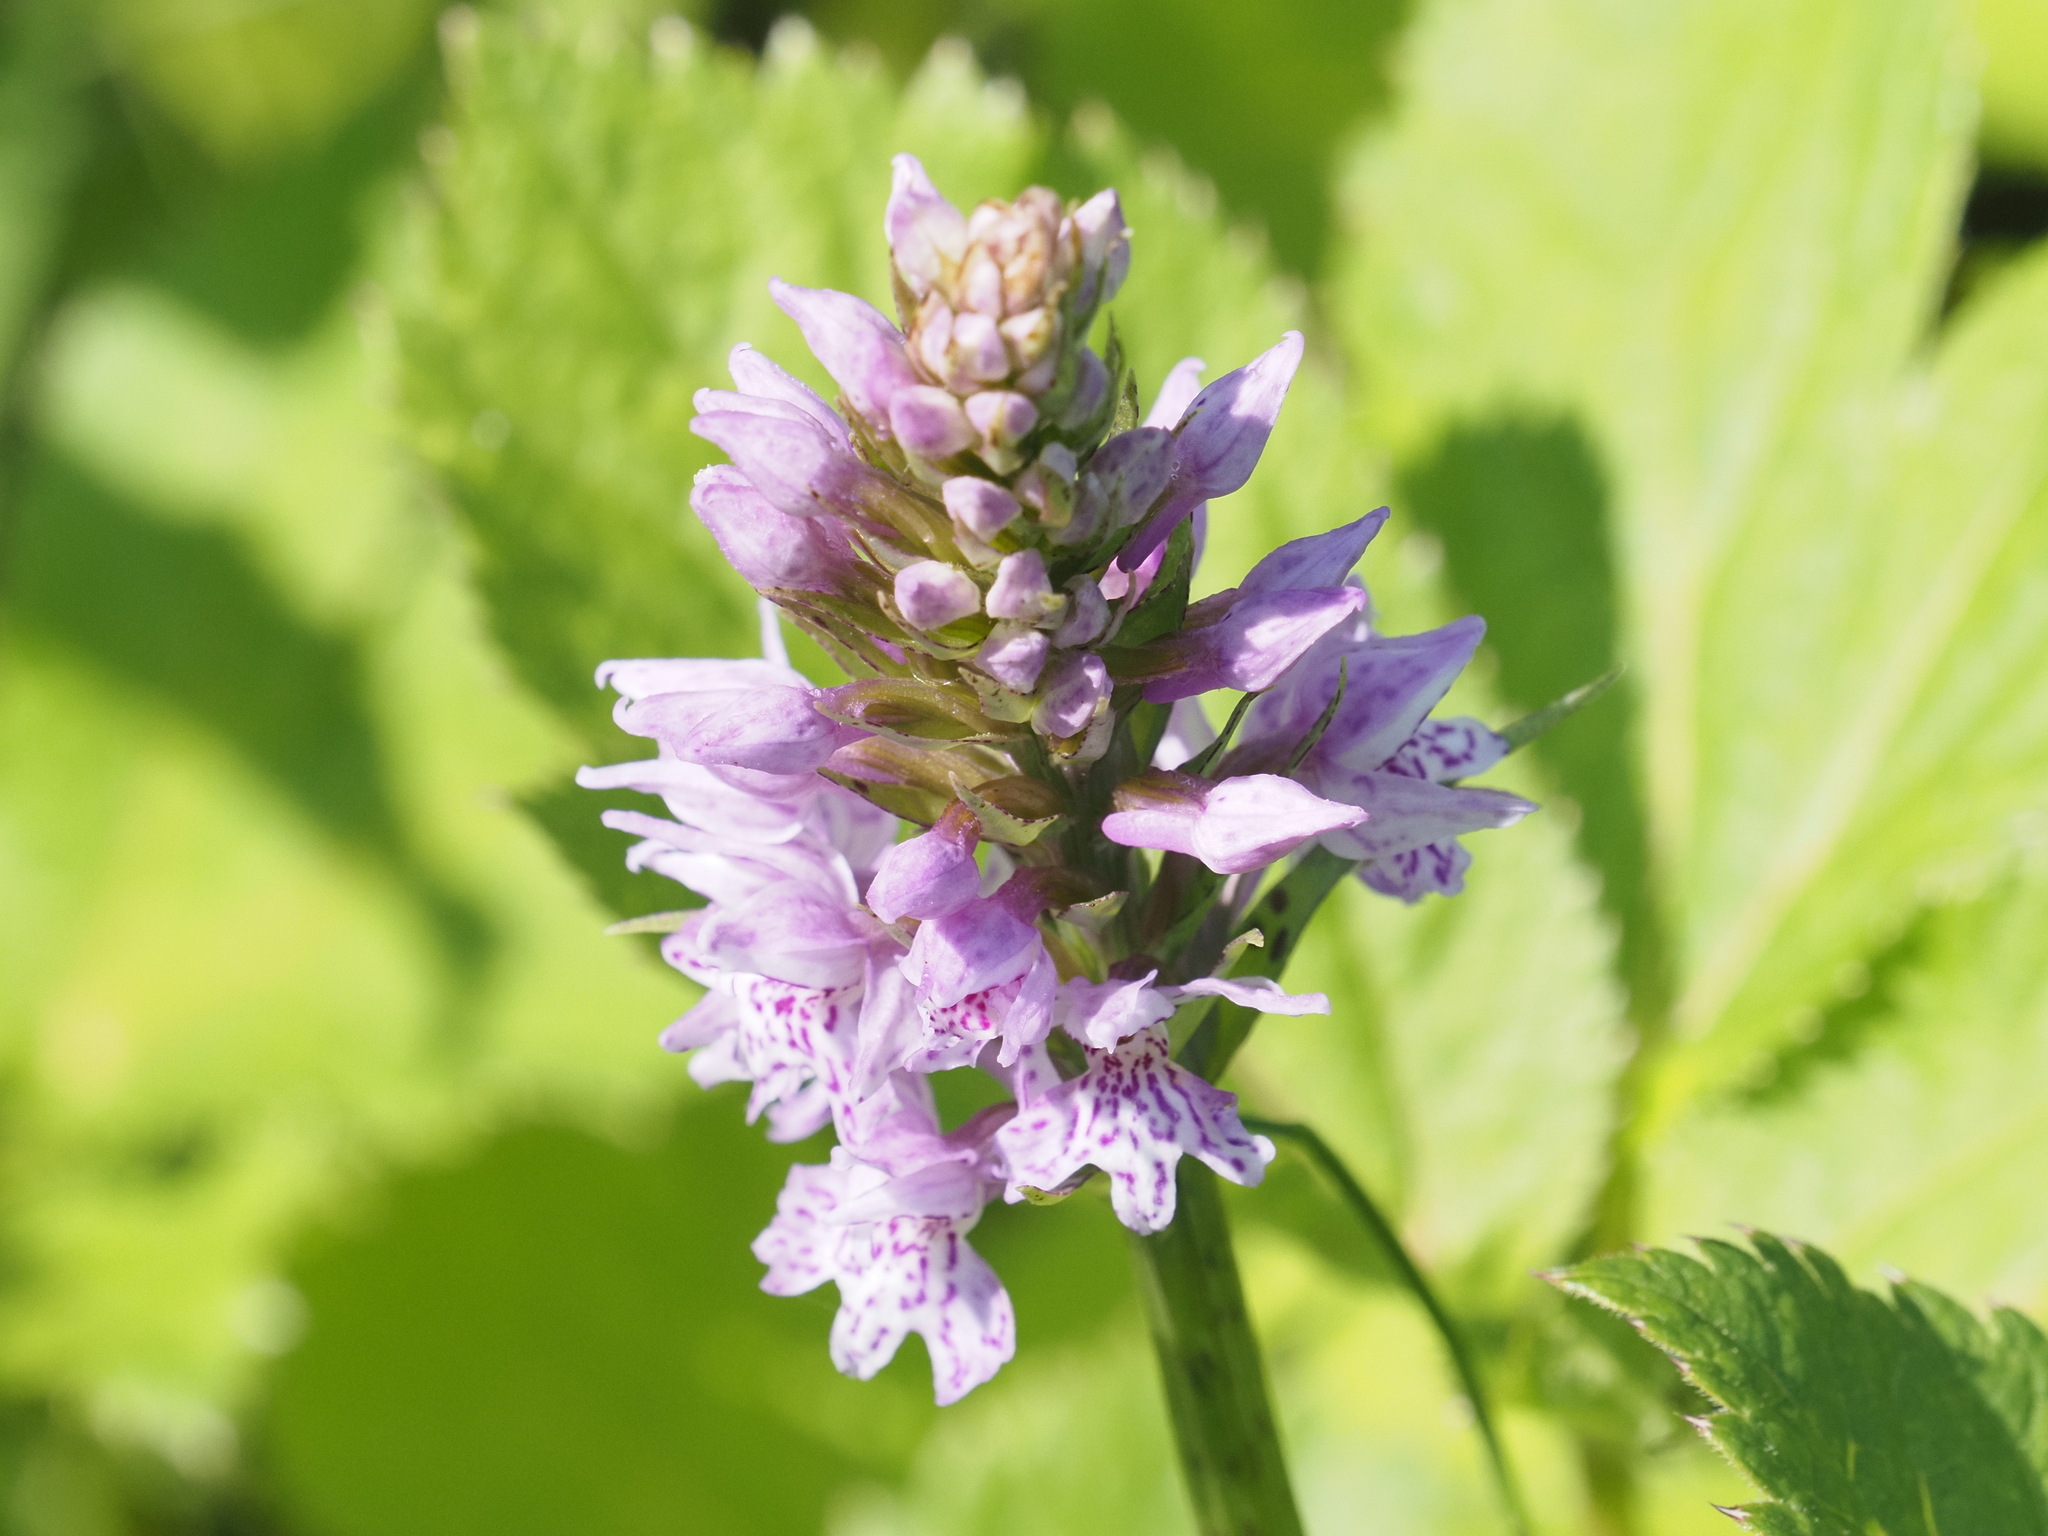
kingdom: Plantae
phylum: Tracheophyta
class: Liliopsida
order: Asparagales
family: Orchidaceae
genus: Dactylorhiza
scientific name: Dactylorhiza maculata
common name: Heath spotted-orchid
